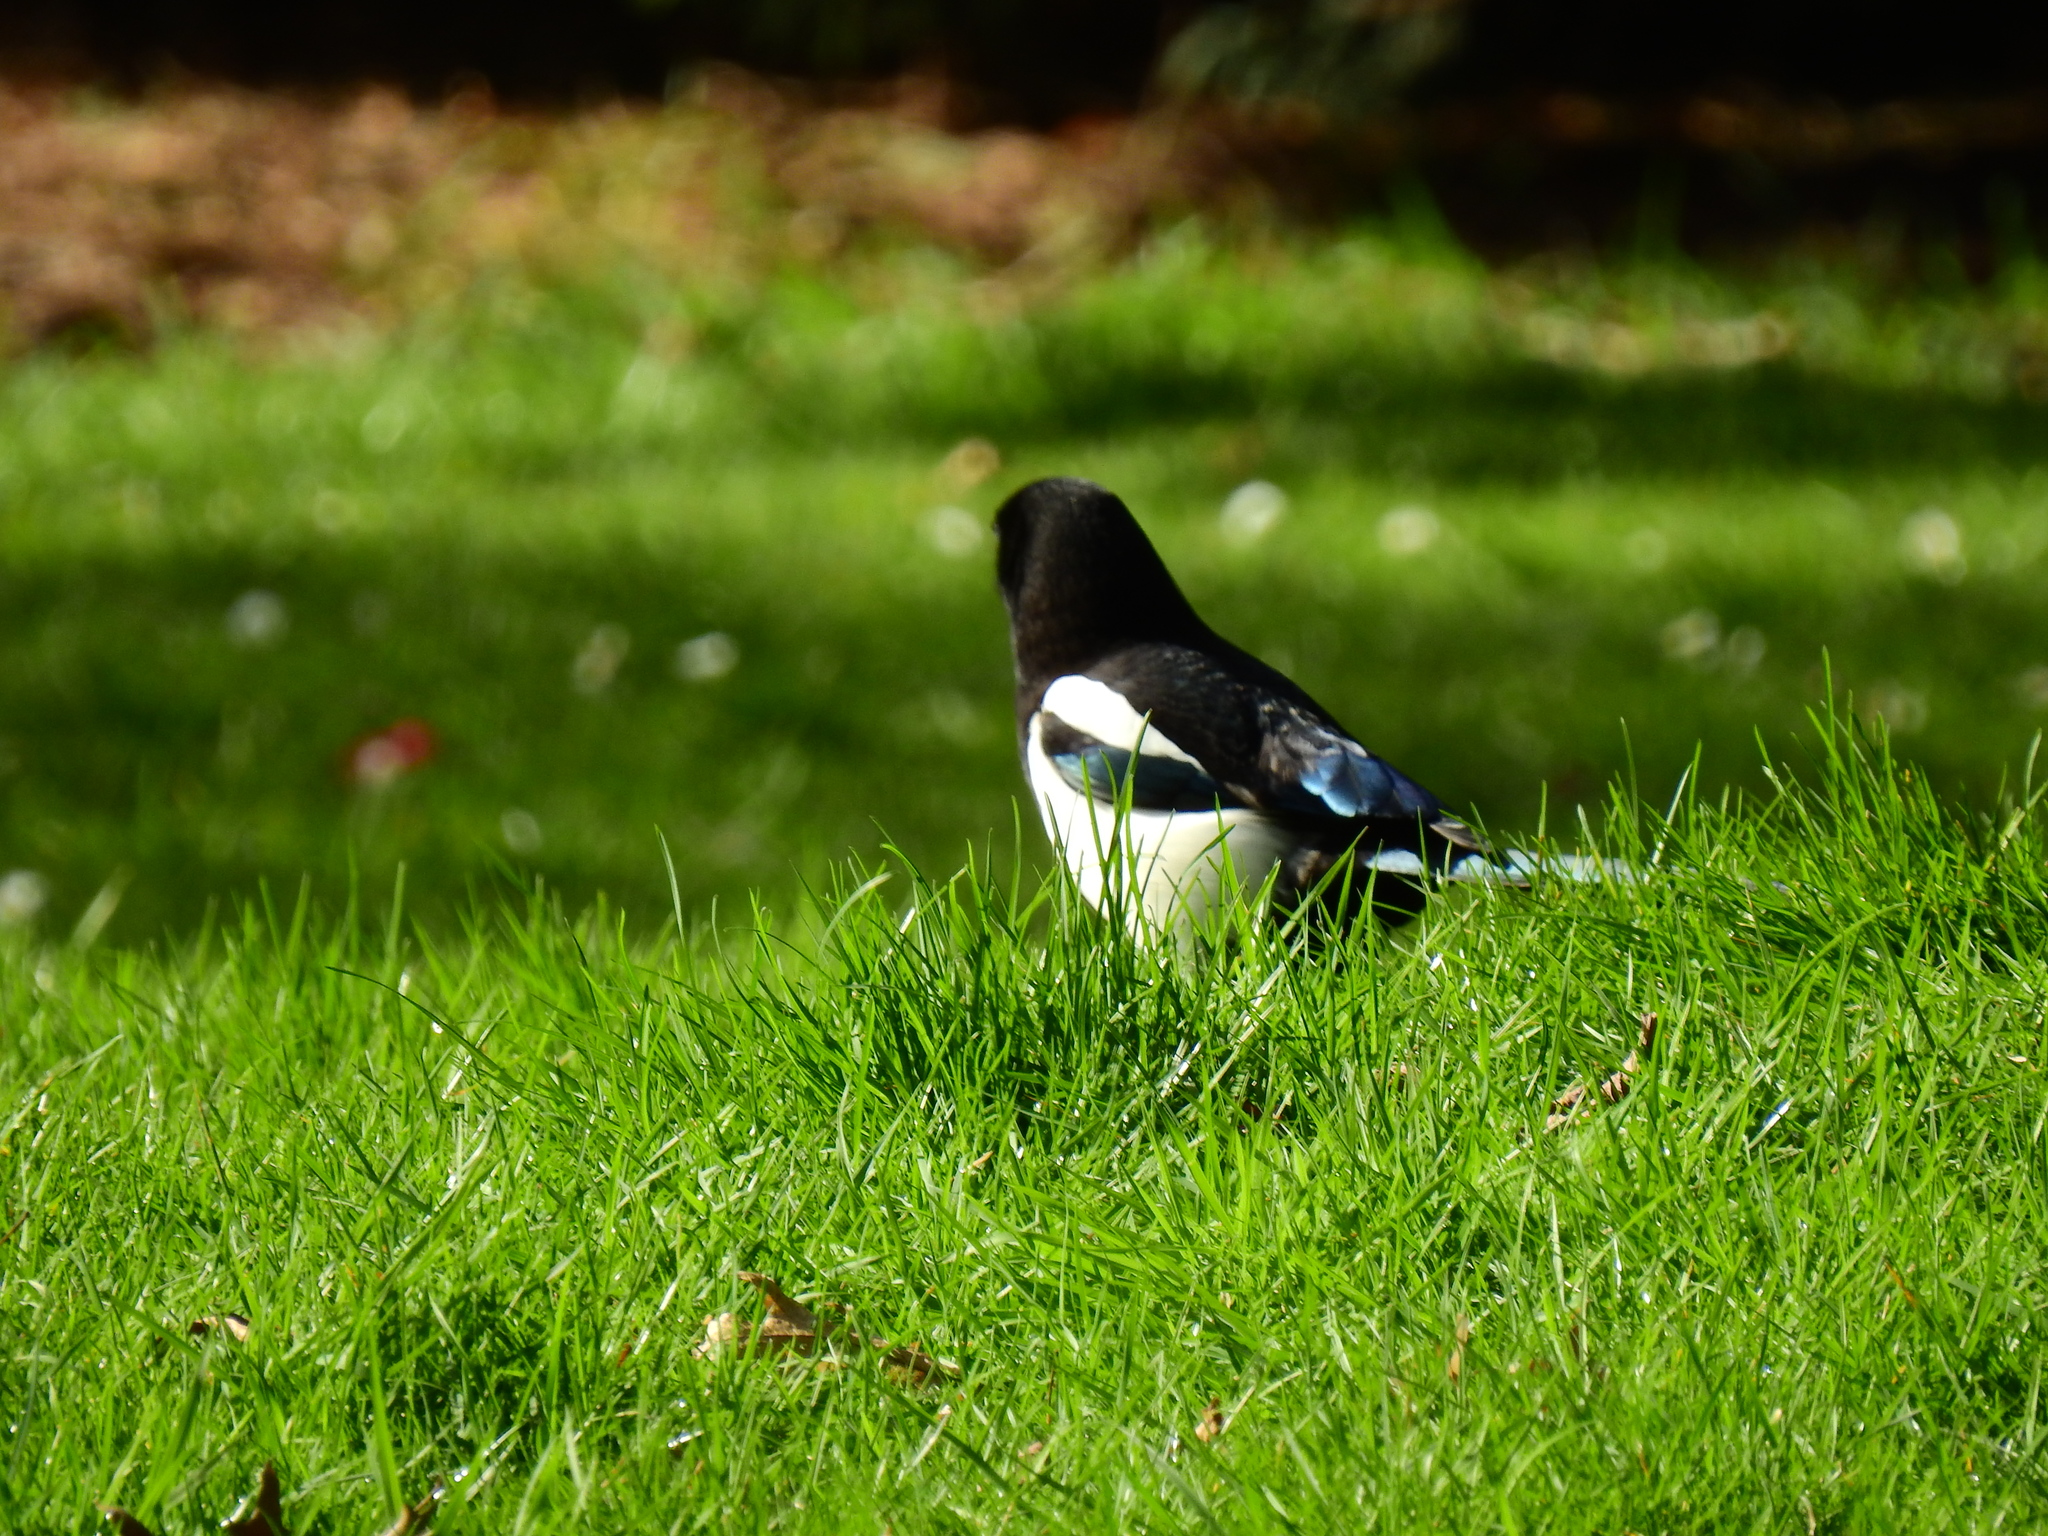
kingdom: Animalia
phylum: Chordata
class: Aves
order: Passeriformes
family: Corvidae
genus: Pica
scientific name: Pica pica
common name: Eurasian magpie
